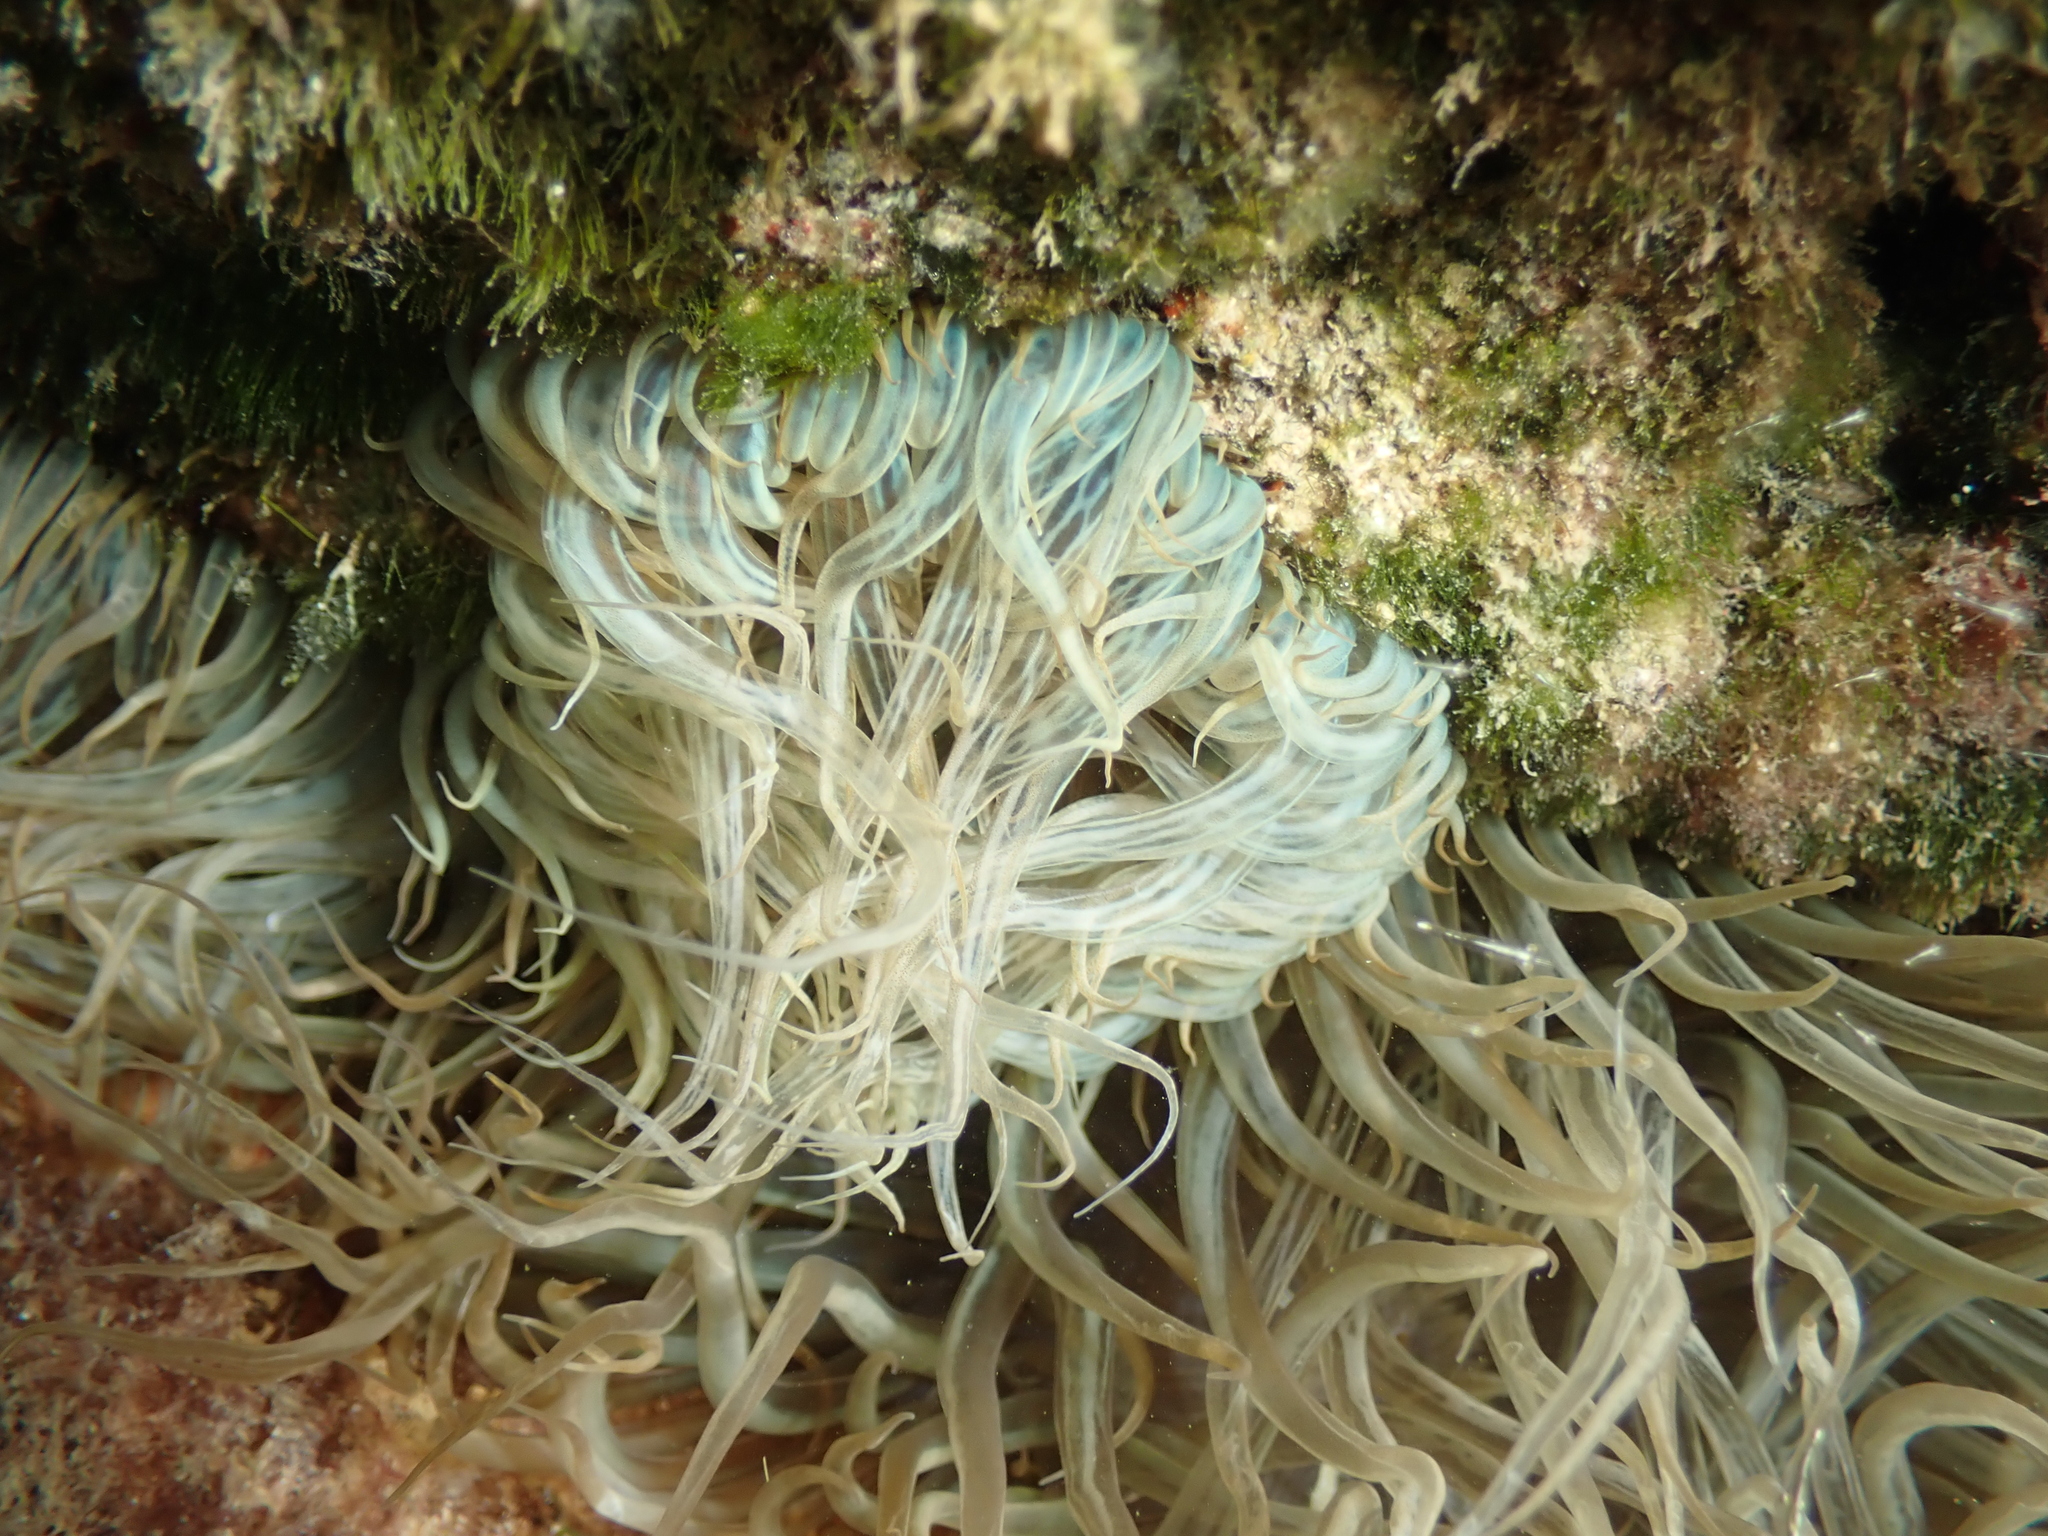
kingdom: Animalia
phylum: Cnidaria
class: Anthozoa
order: Actiniaria
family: Aiptasiidae
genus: Aiptasia
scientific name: Aiptasia mutabilis
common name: Trumpet anemone
